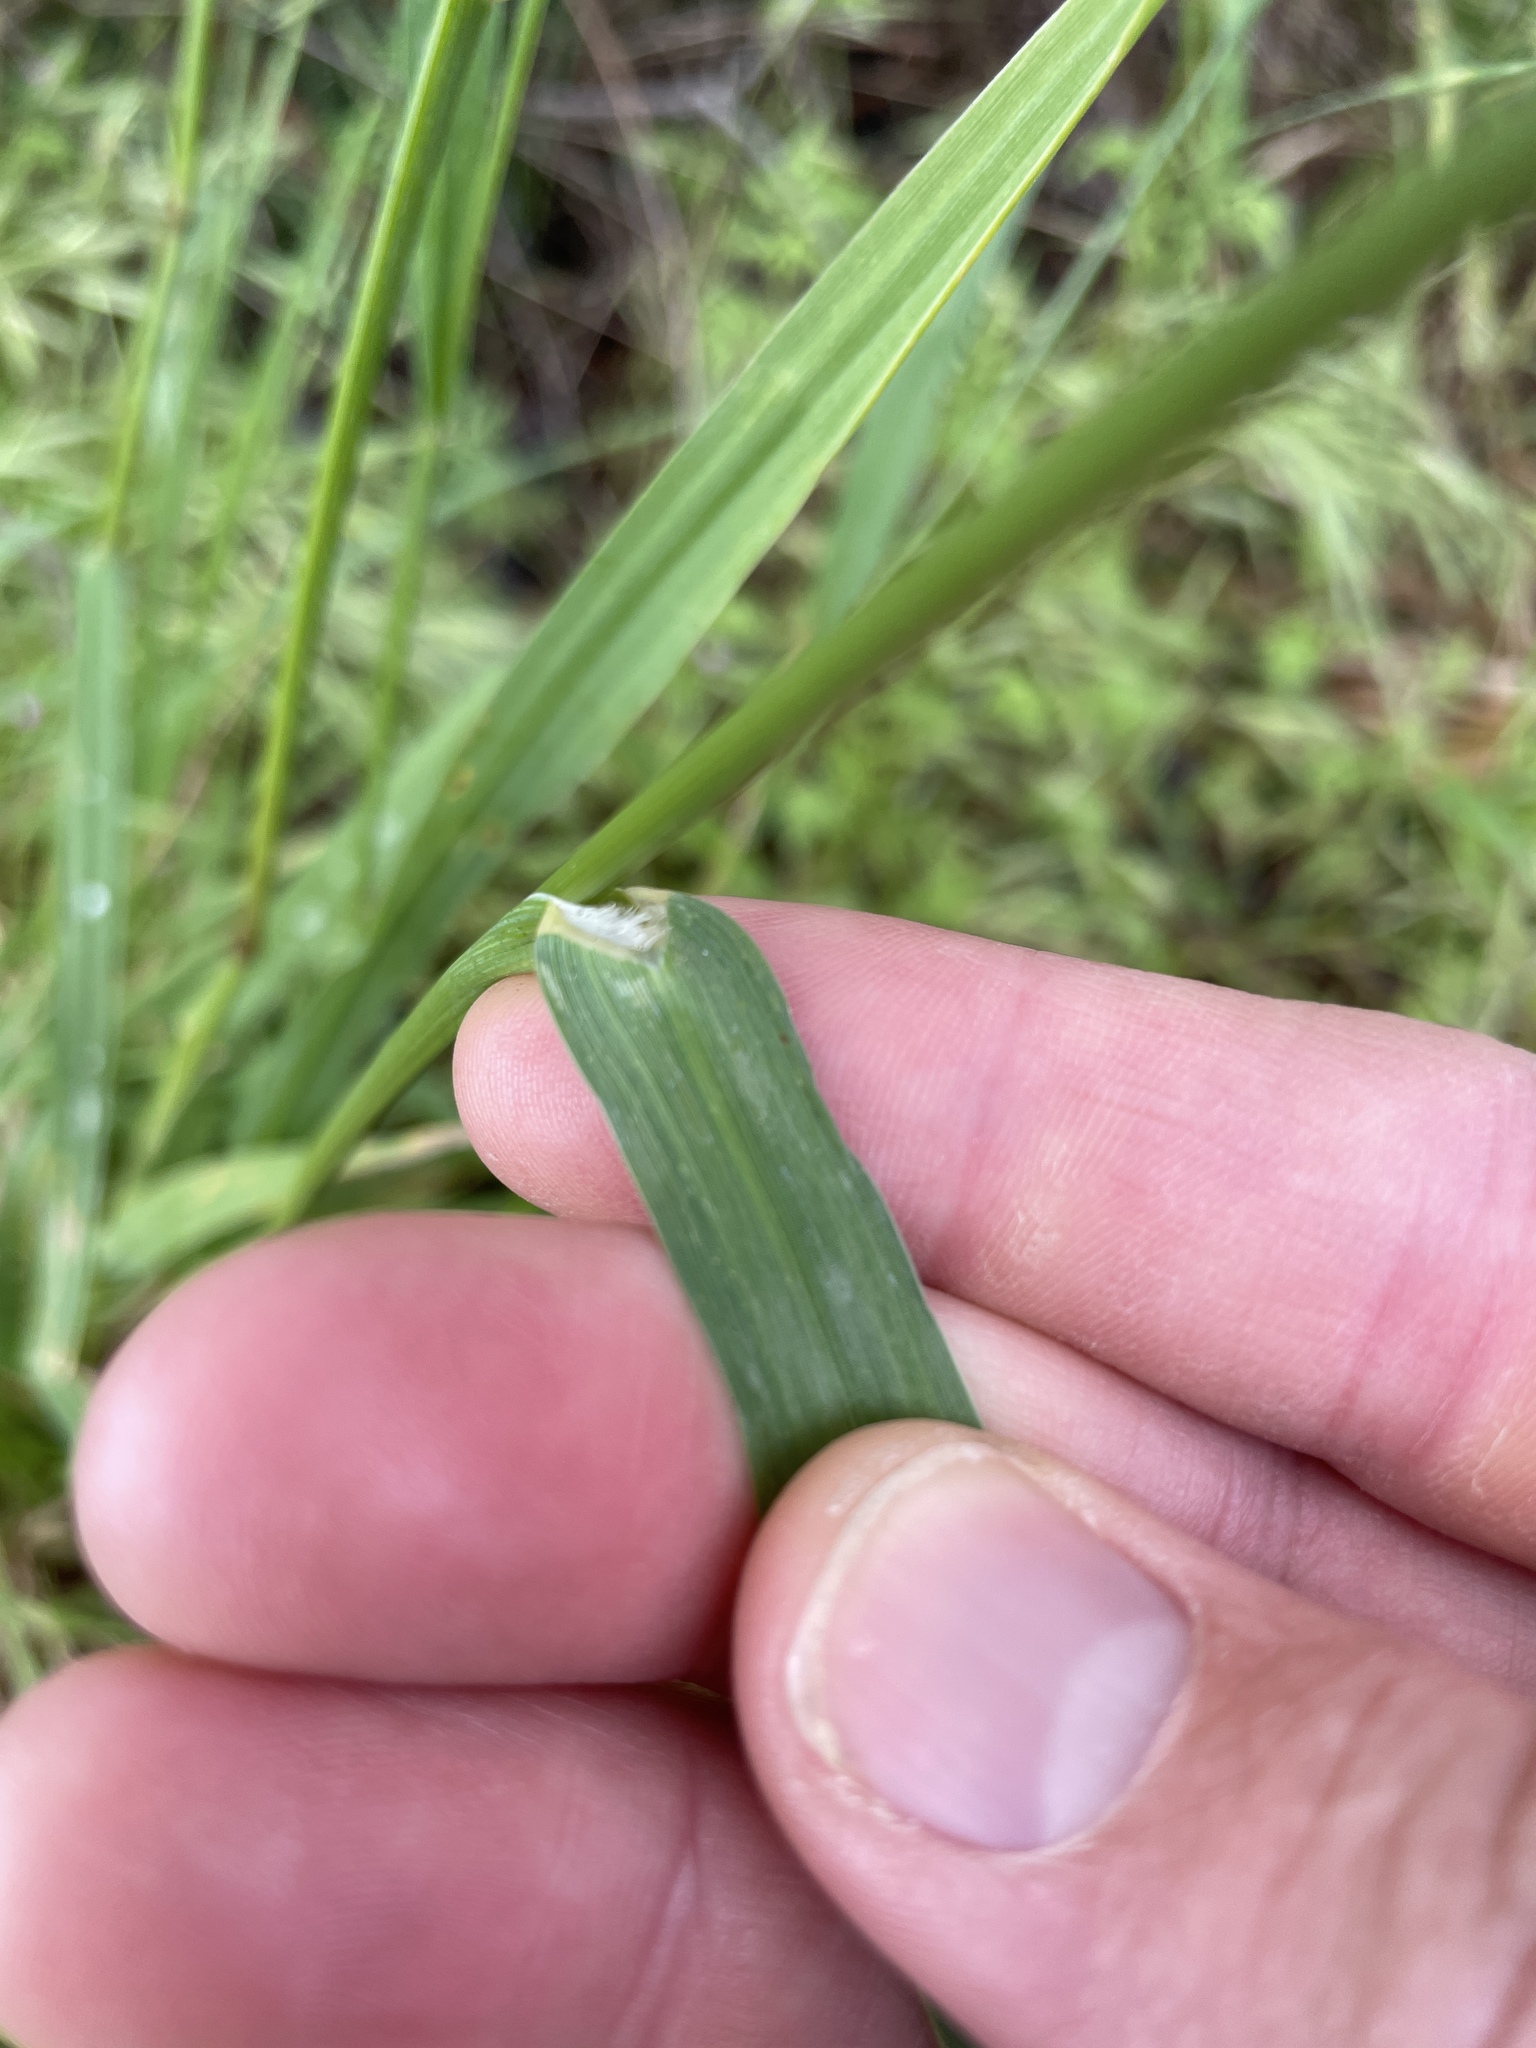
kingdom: Plantae
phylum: Tracheophyta
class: Liliopsida
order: Poales
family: Poaceae
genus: Bromus
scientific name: Bromus carinatus
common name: Mountain brome
